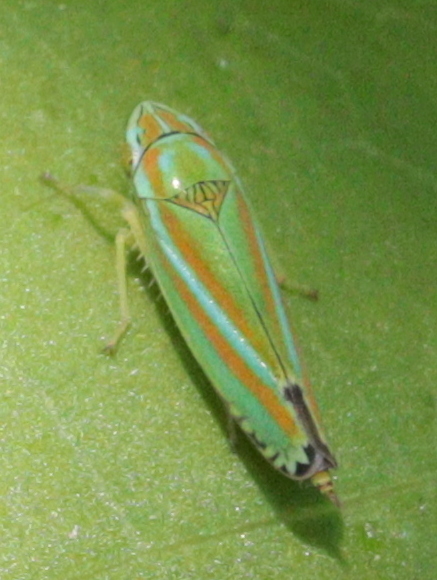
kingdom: Animalia
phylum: Arthropoda
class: Insecta
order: Hemiptera
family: Cicadellidae
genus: Graphocephala
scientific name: Graphocephala versuta
